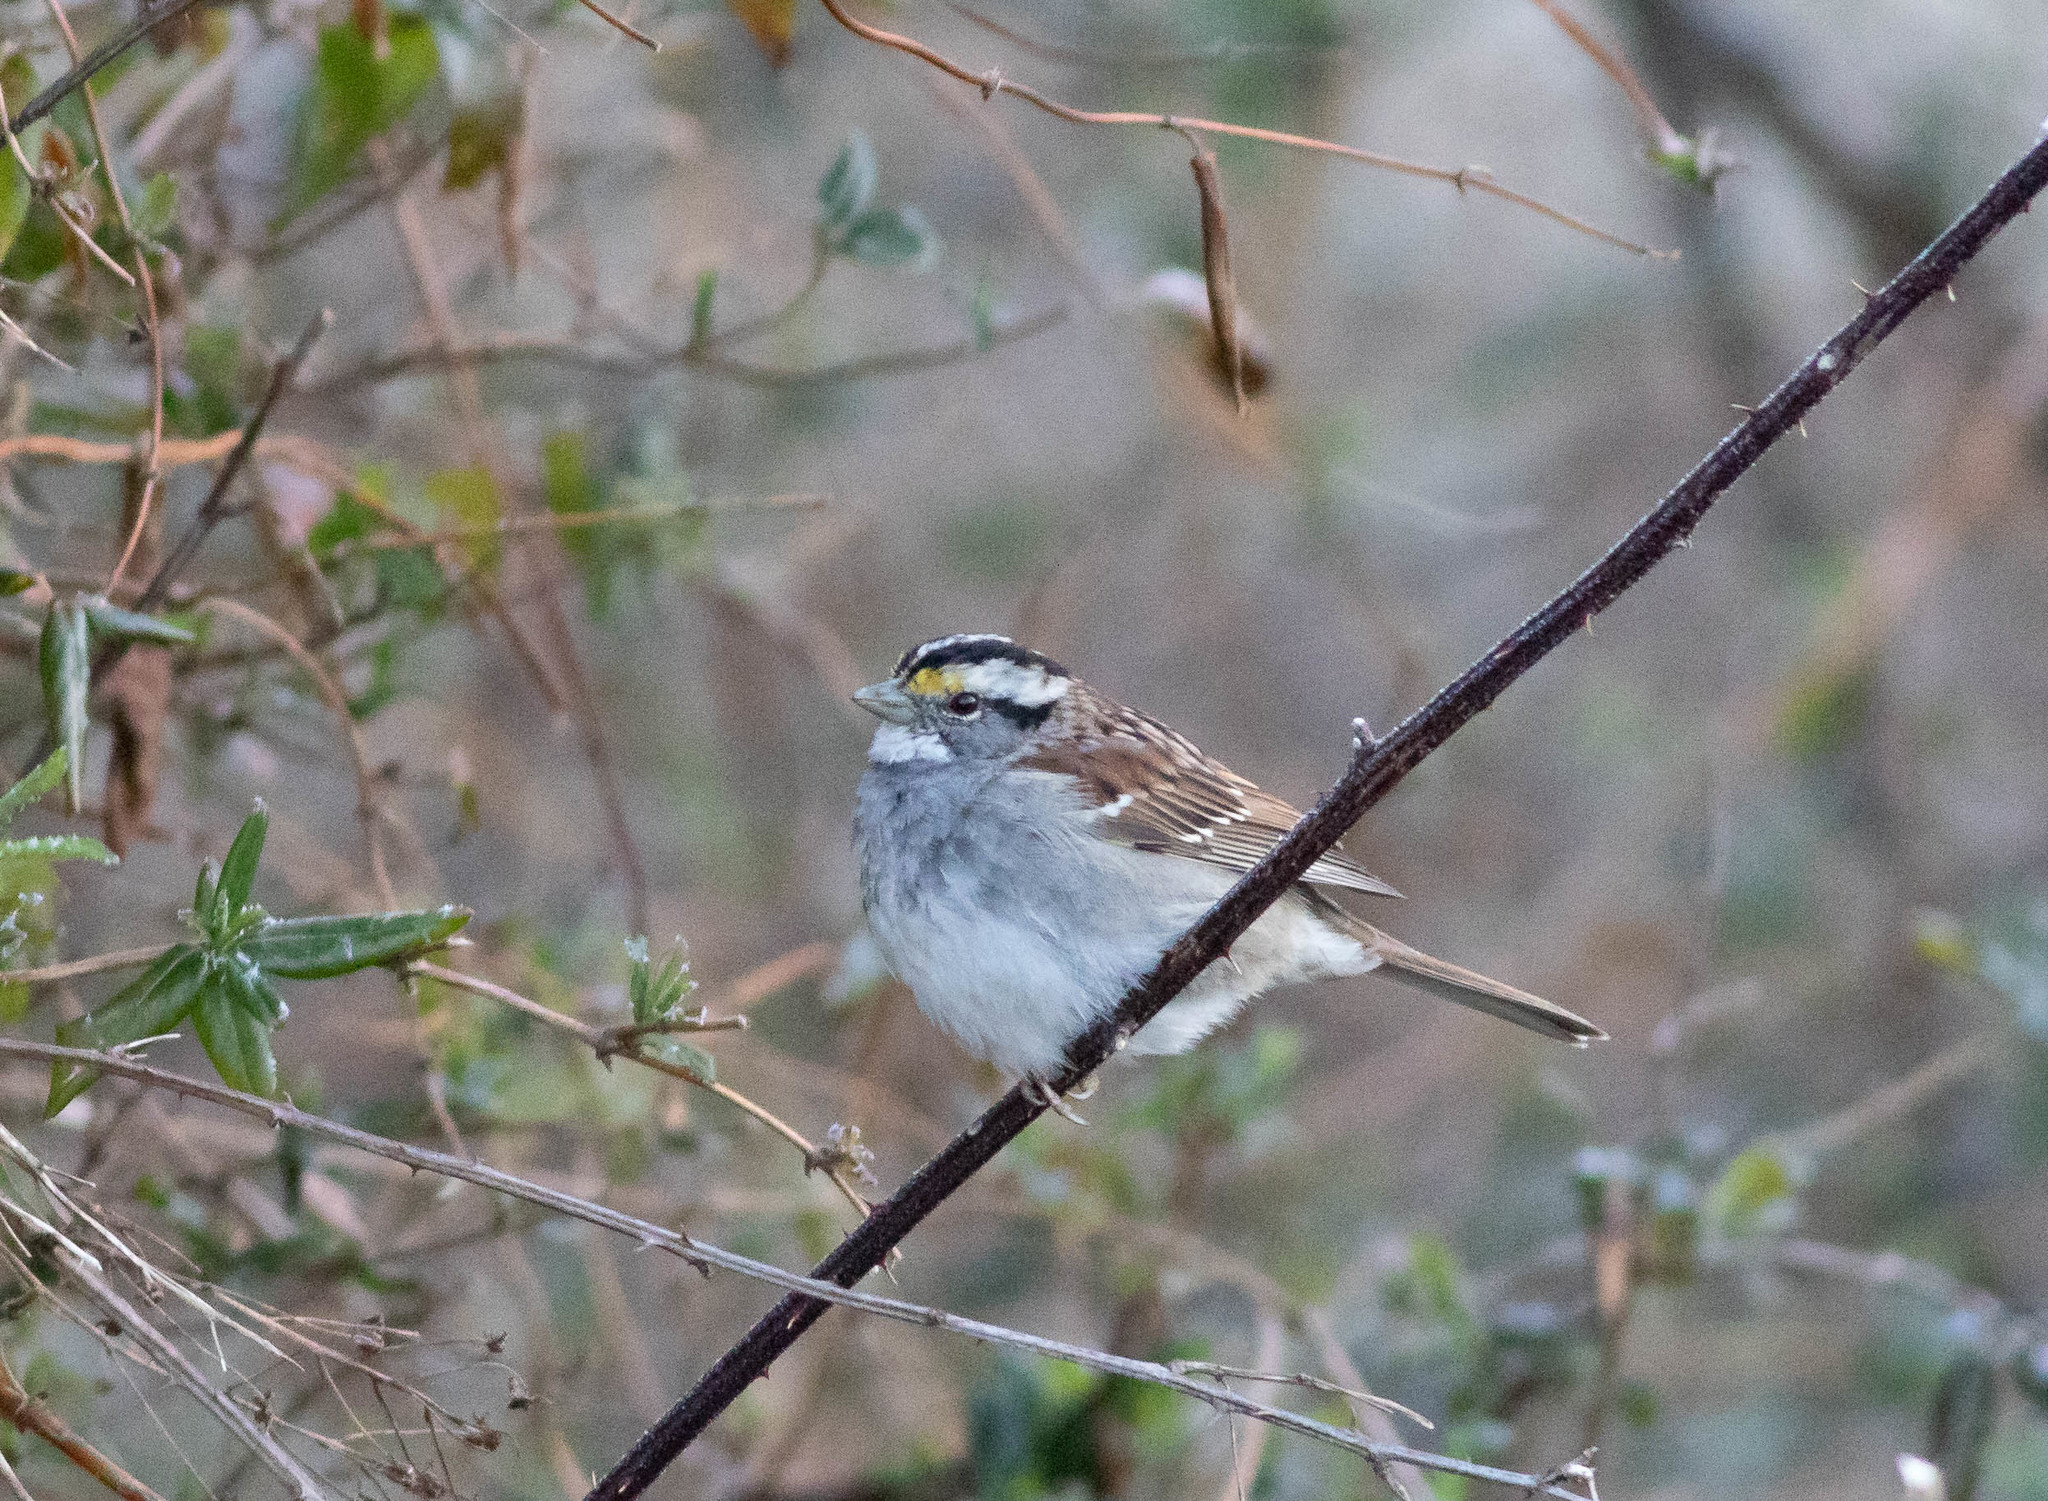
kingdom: Animalia
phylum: Chordata
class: Aves
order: Passeriformes
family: Passerellidae
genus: Zonotrichia
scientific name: Zonotrichia albicollis
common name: White-throated sparrow
